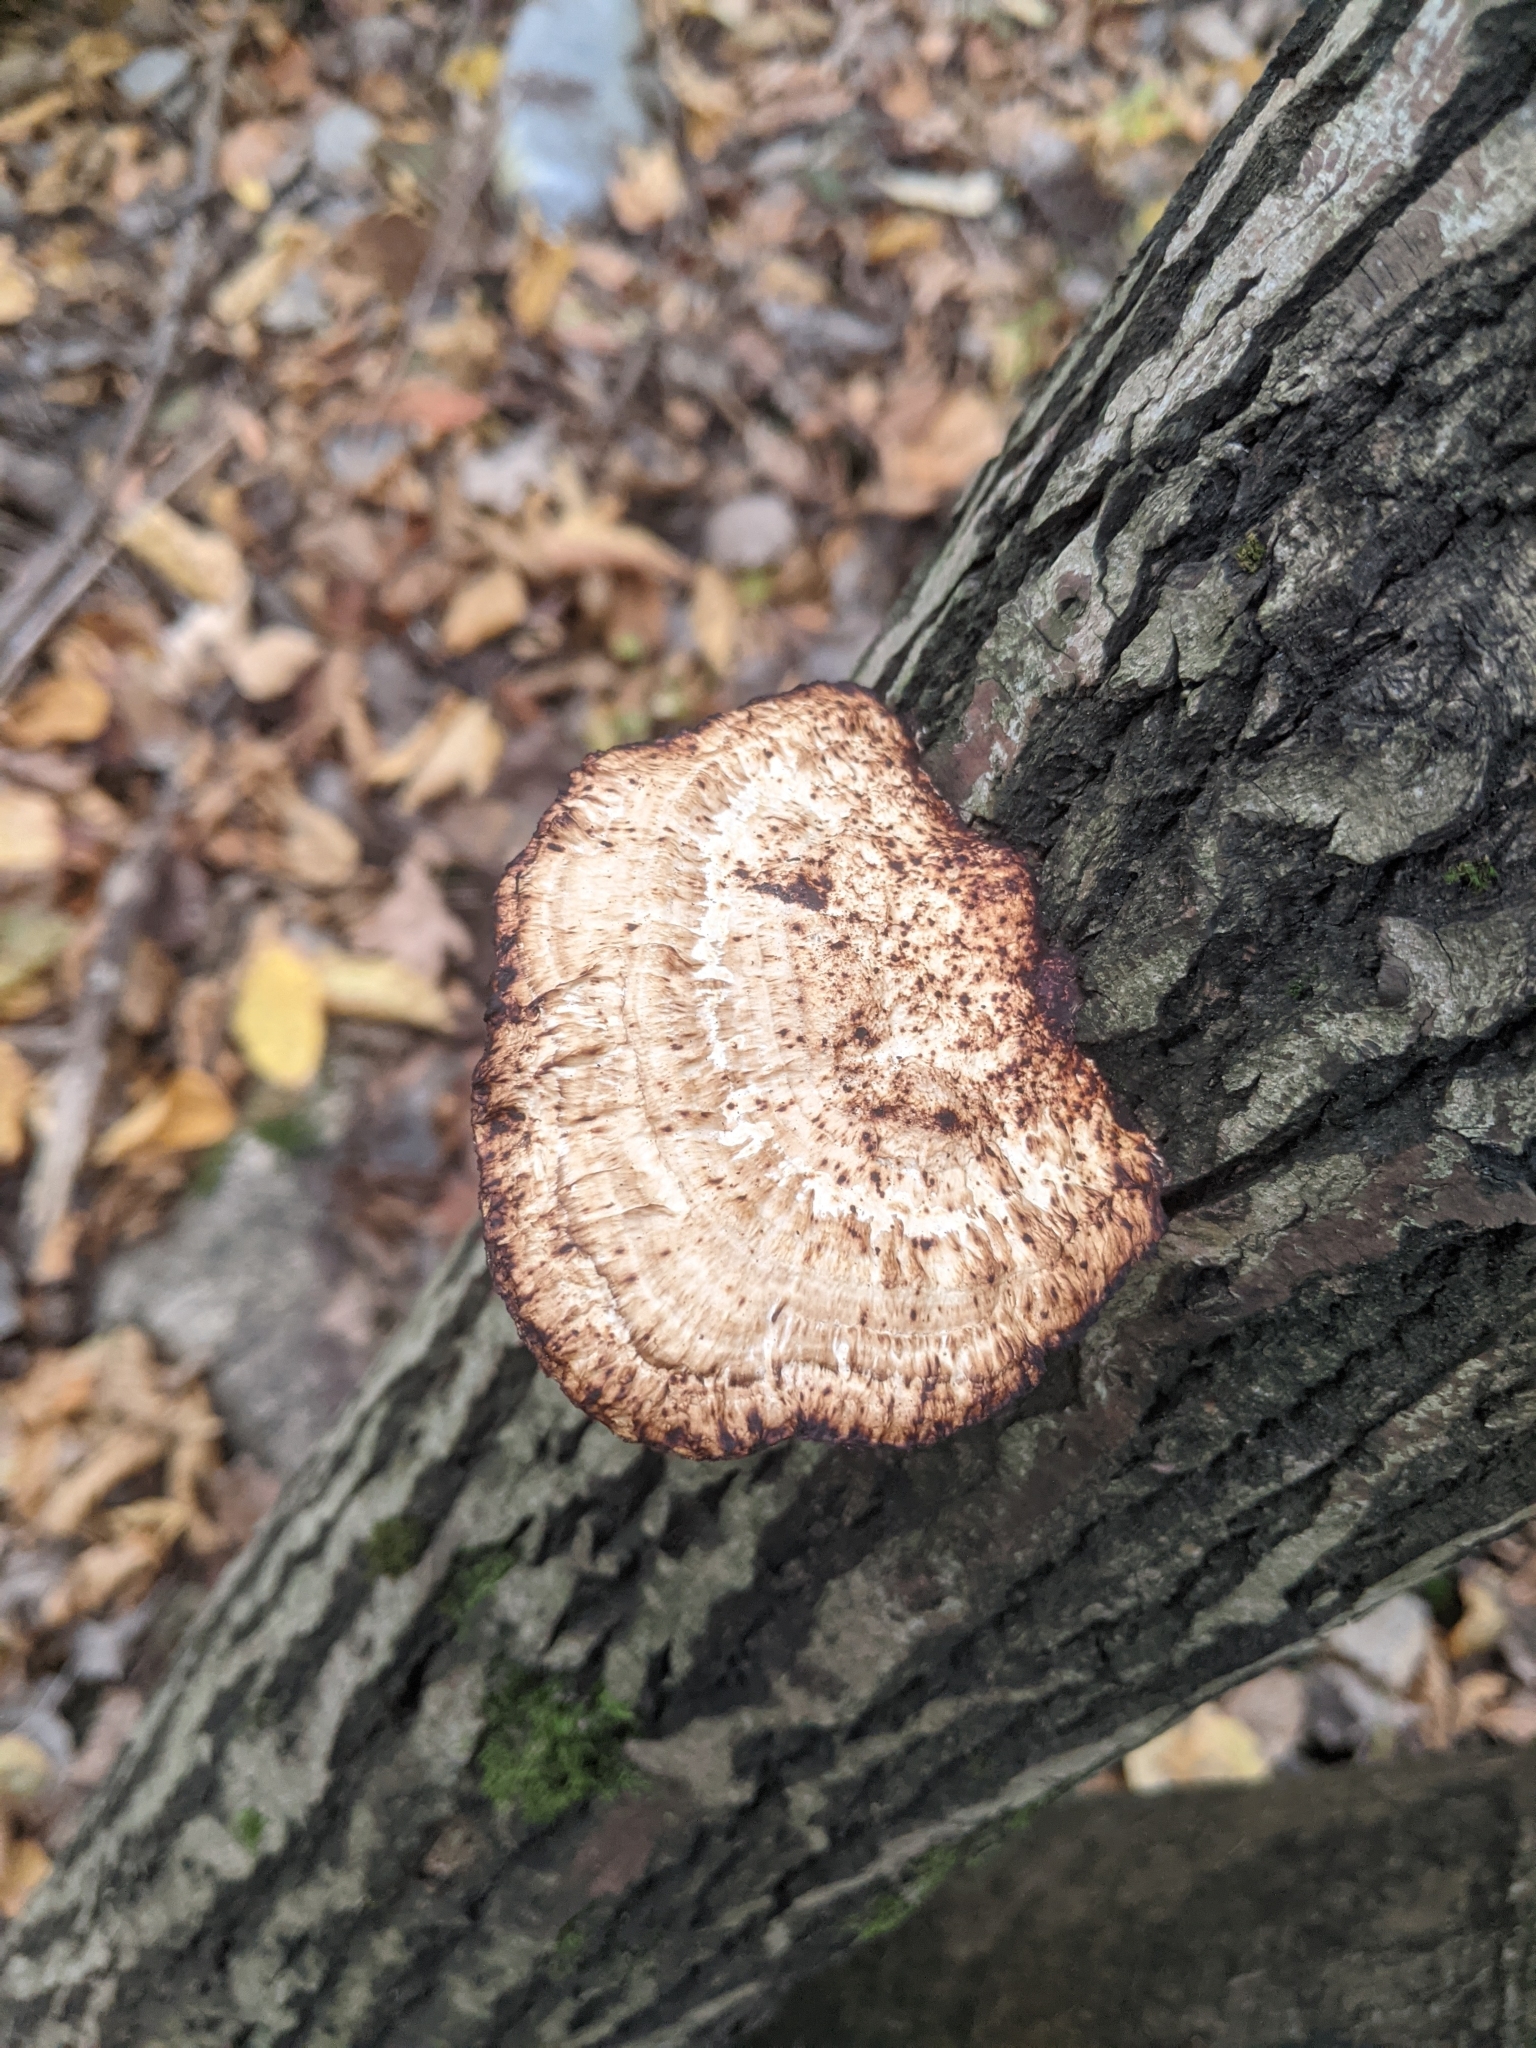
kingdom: Fungi
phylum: Basidiomycota
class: Agaricomycetes
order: Polyporales
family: Polyporaceae
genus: Daedaleopsis
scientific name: Daedaleopsis confragosa
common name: Blushing bracket
